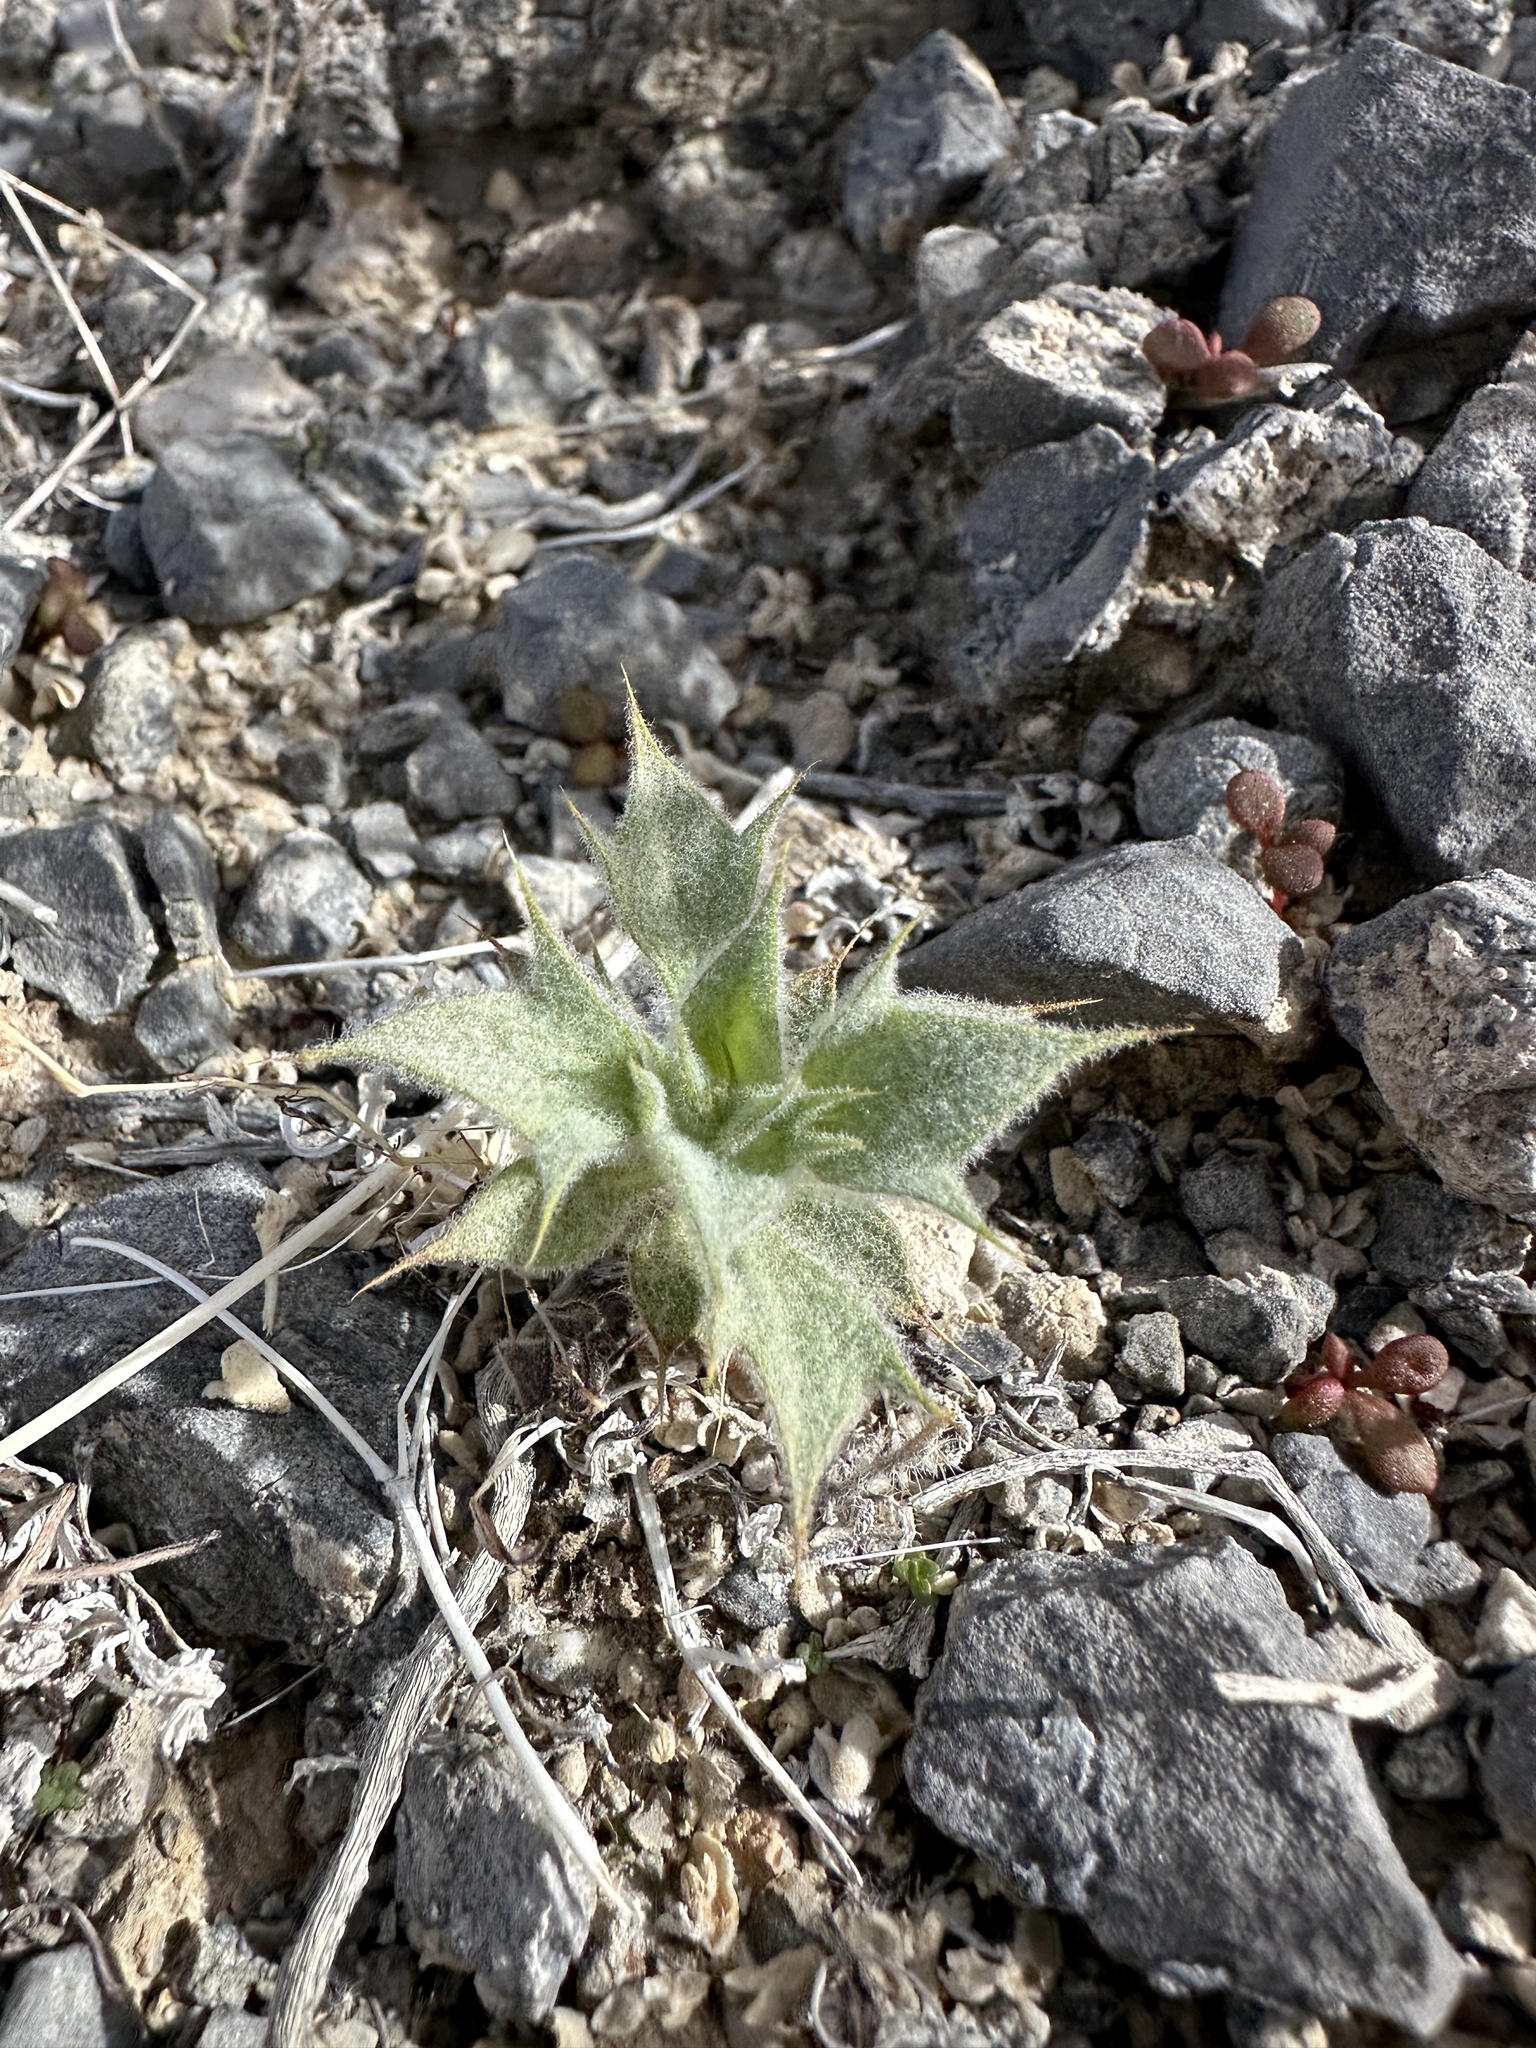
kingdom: Plantae
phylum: Tracheophyta
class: Magnoliopsida
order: Lamiales
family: Lamiaceae
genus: Salvia
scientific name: Salvia funerea
